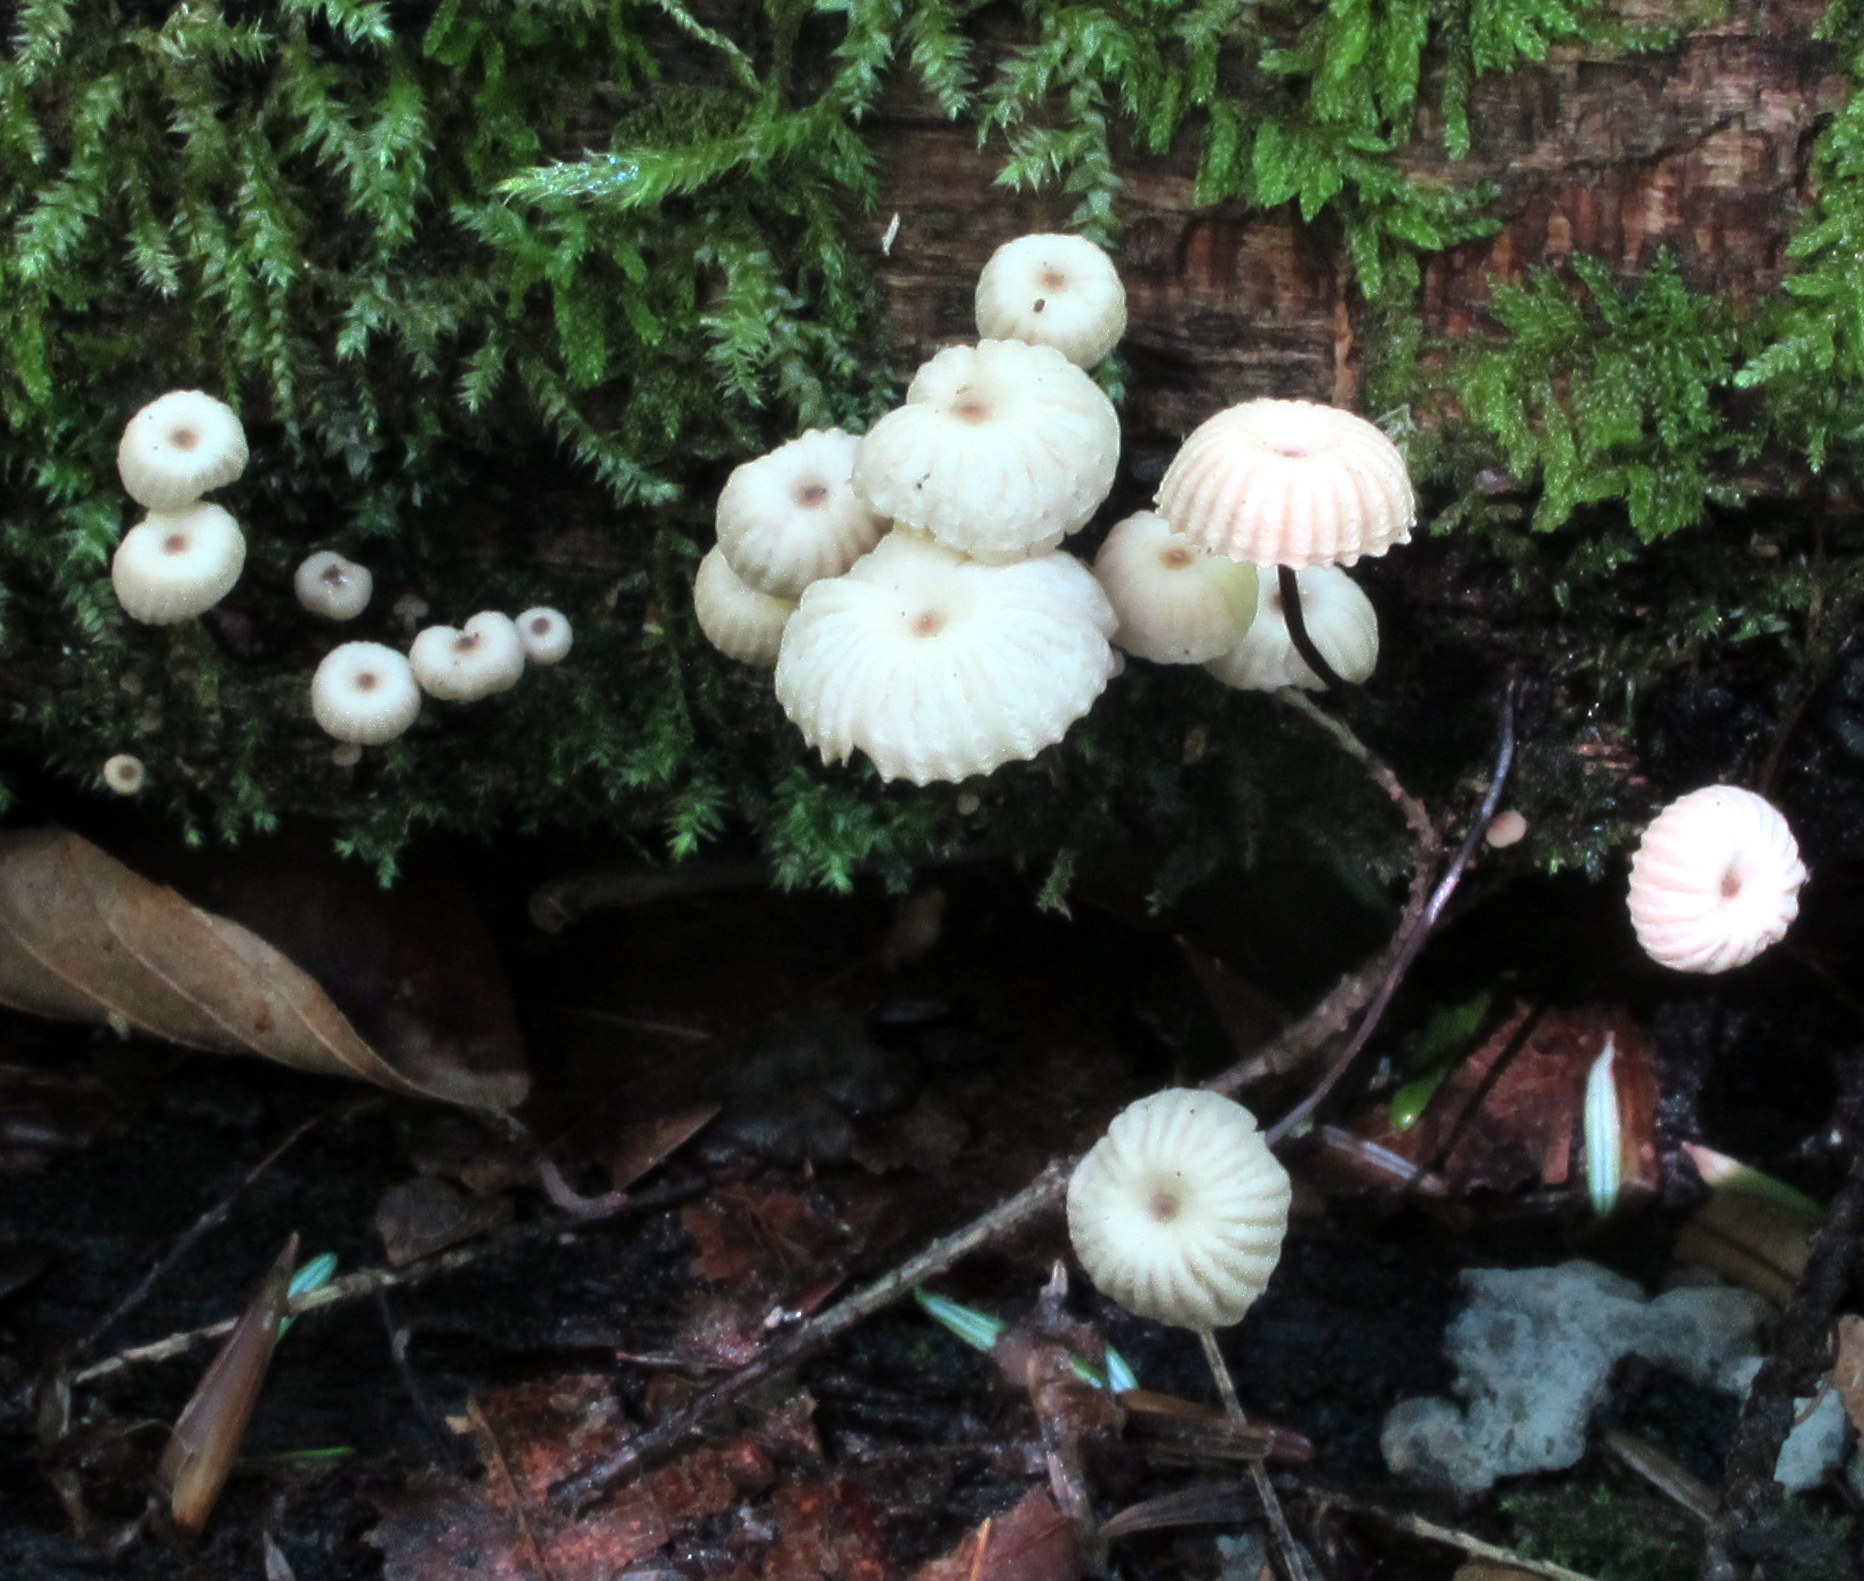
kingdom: Fungi
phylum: Basidiomycota
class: Agaricomycetes
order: Agaricales
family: Marasmiaceae
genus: Marasmius
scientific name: Marasmius rotula
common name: Collared parachute
